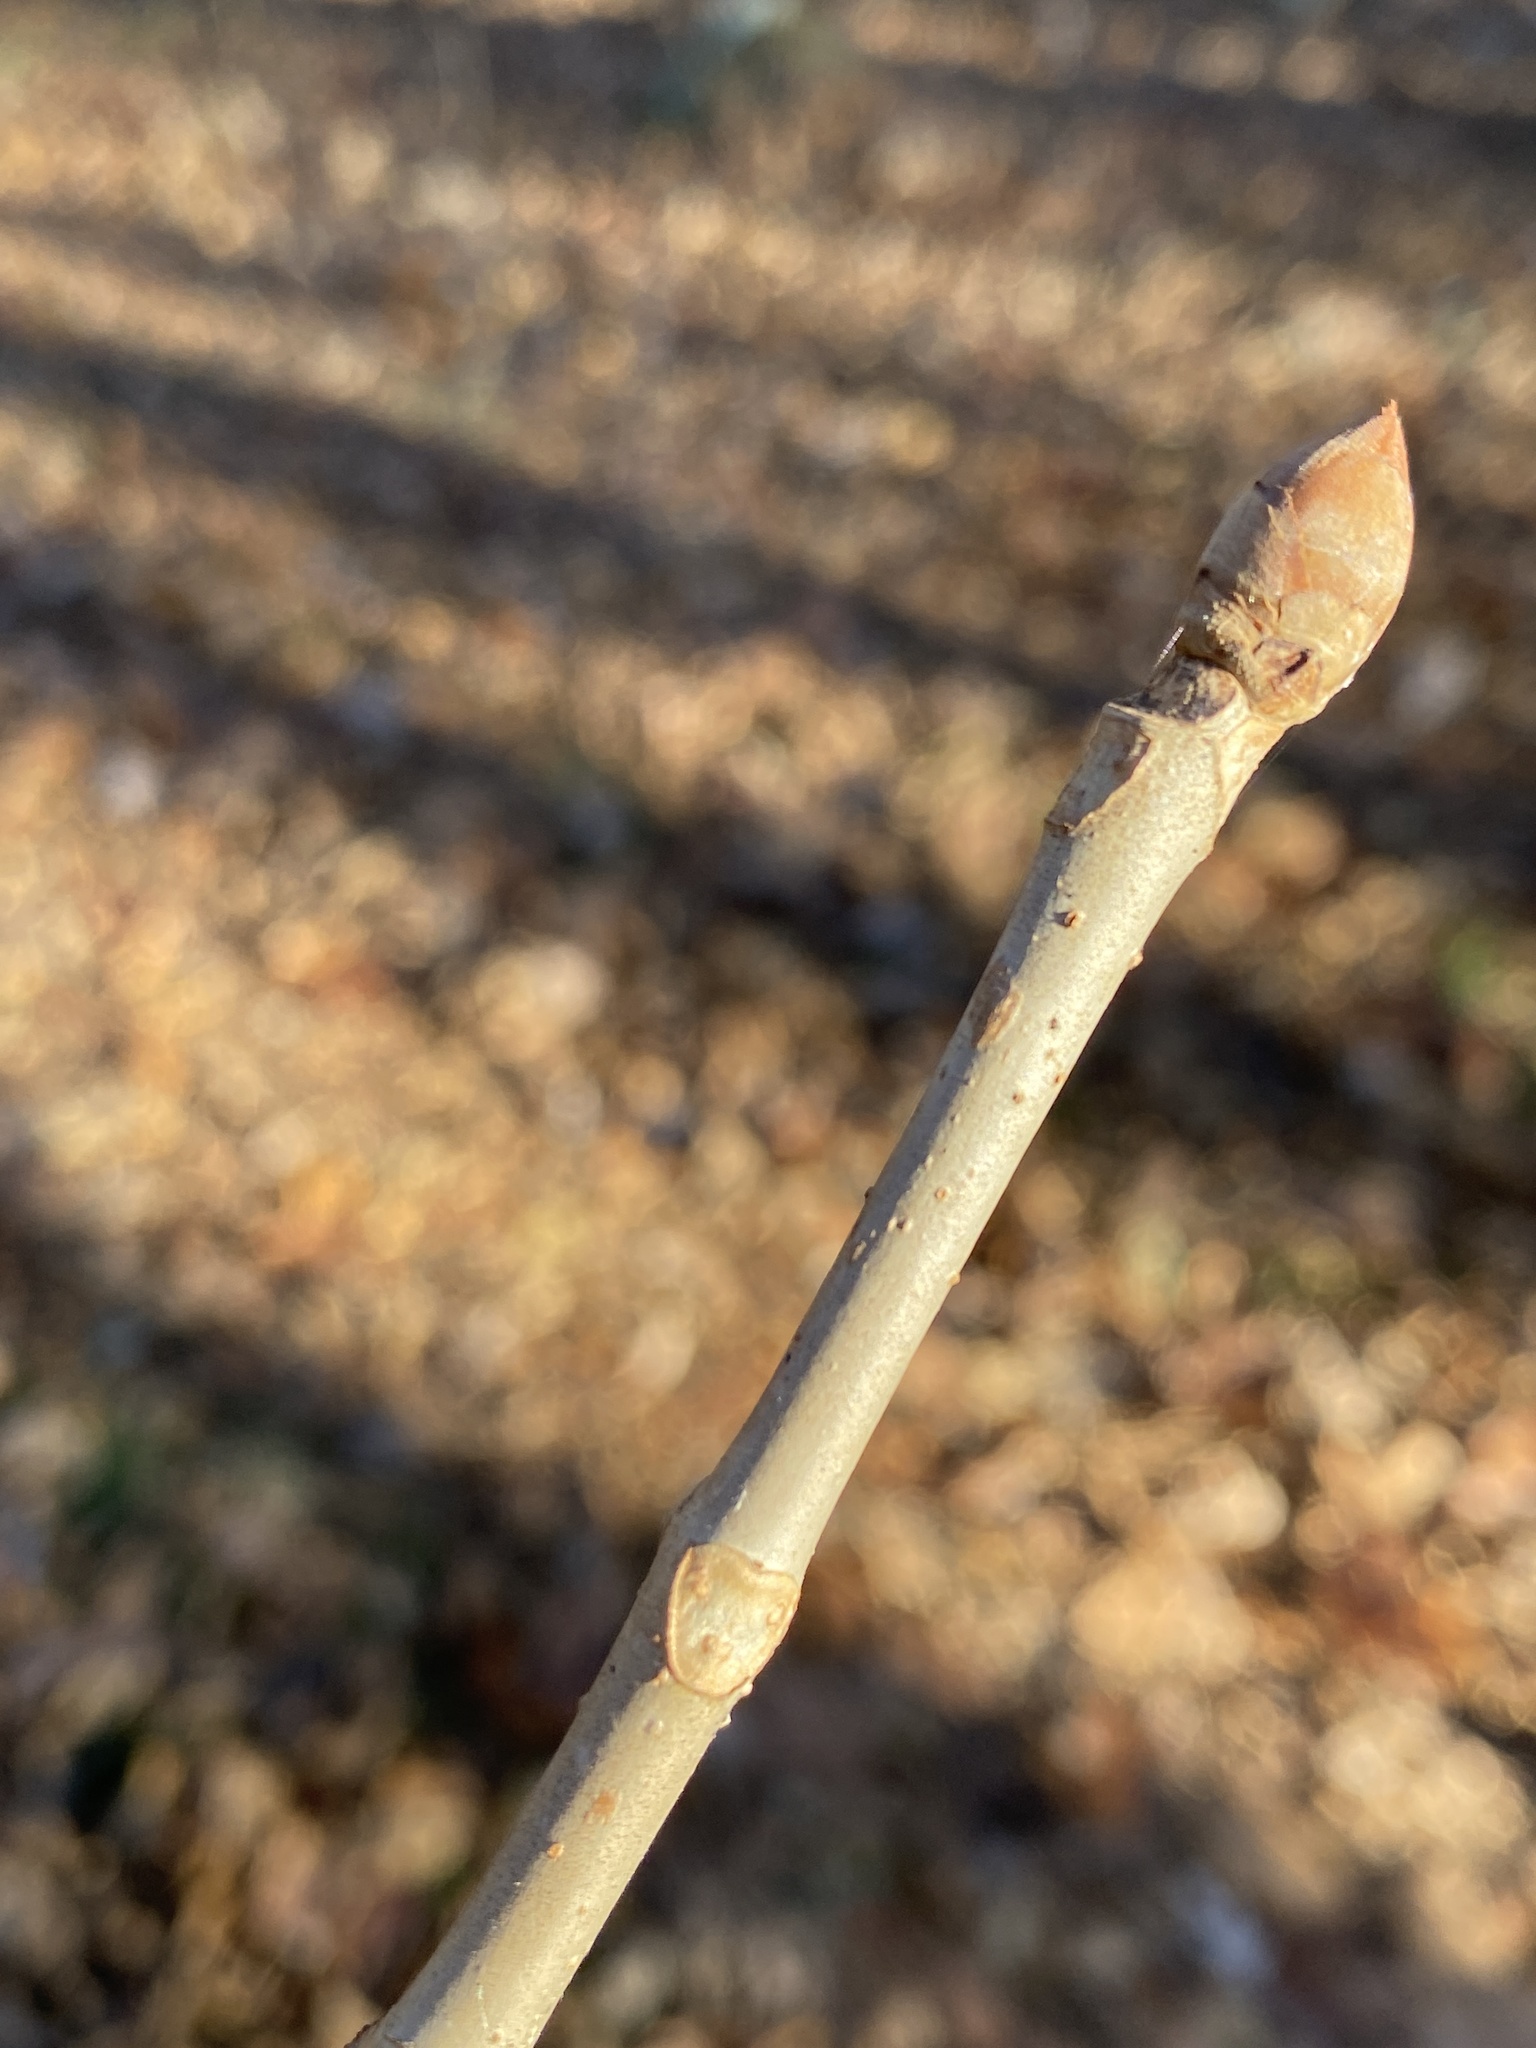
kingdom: Plantae
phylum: Tracheophyta
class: Magnoliopsida
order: Sapindales
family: Sapindaceae
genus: Aesculus
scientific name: Aesculus sylvatica
